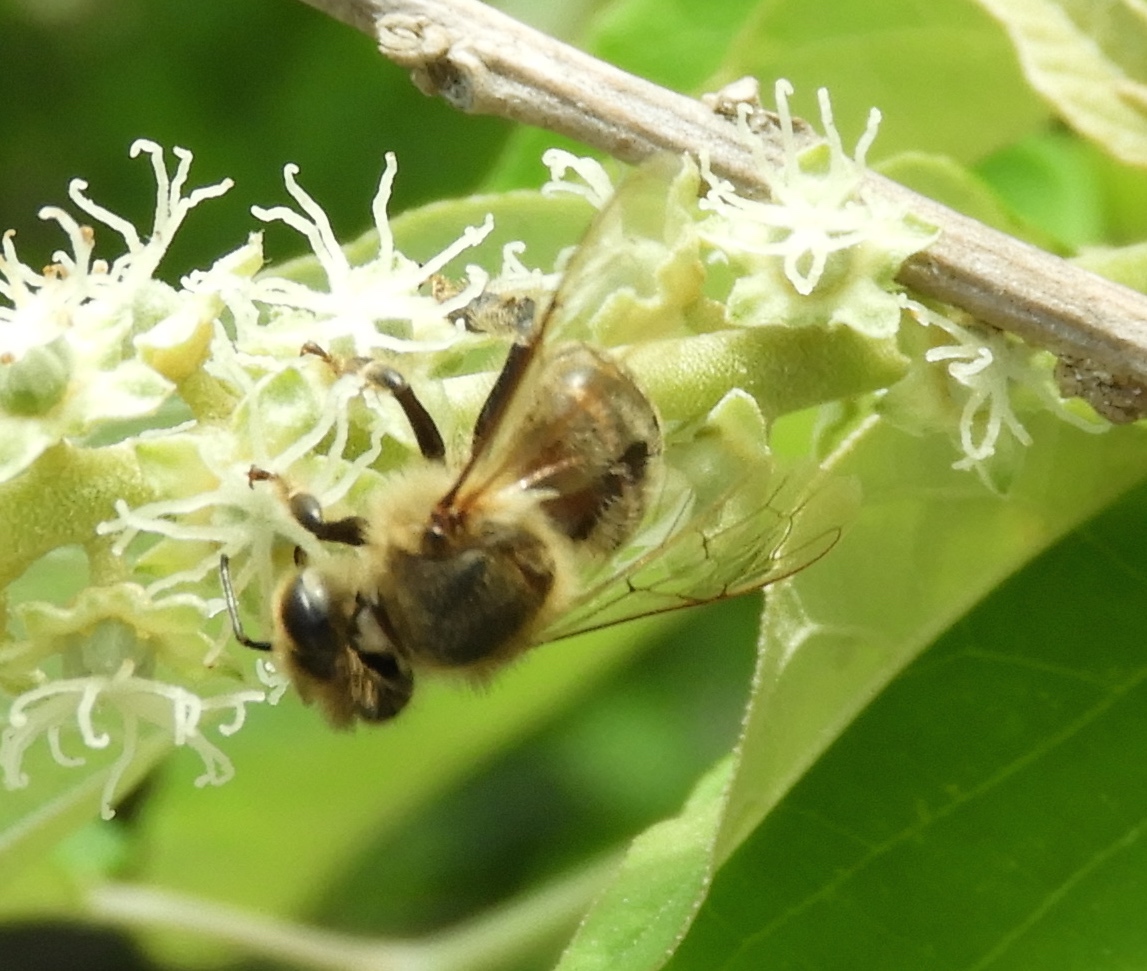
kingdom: Animalia
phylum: Arthropoda
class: Insecta
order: Hymenoptera
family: Apidae
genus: Apis
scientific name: Apis mellifera
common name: Honey bee
